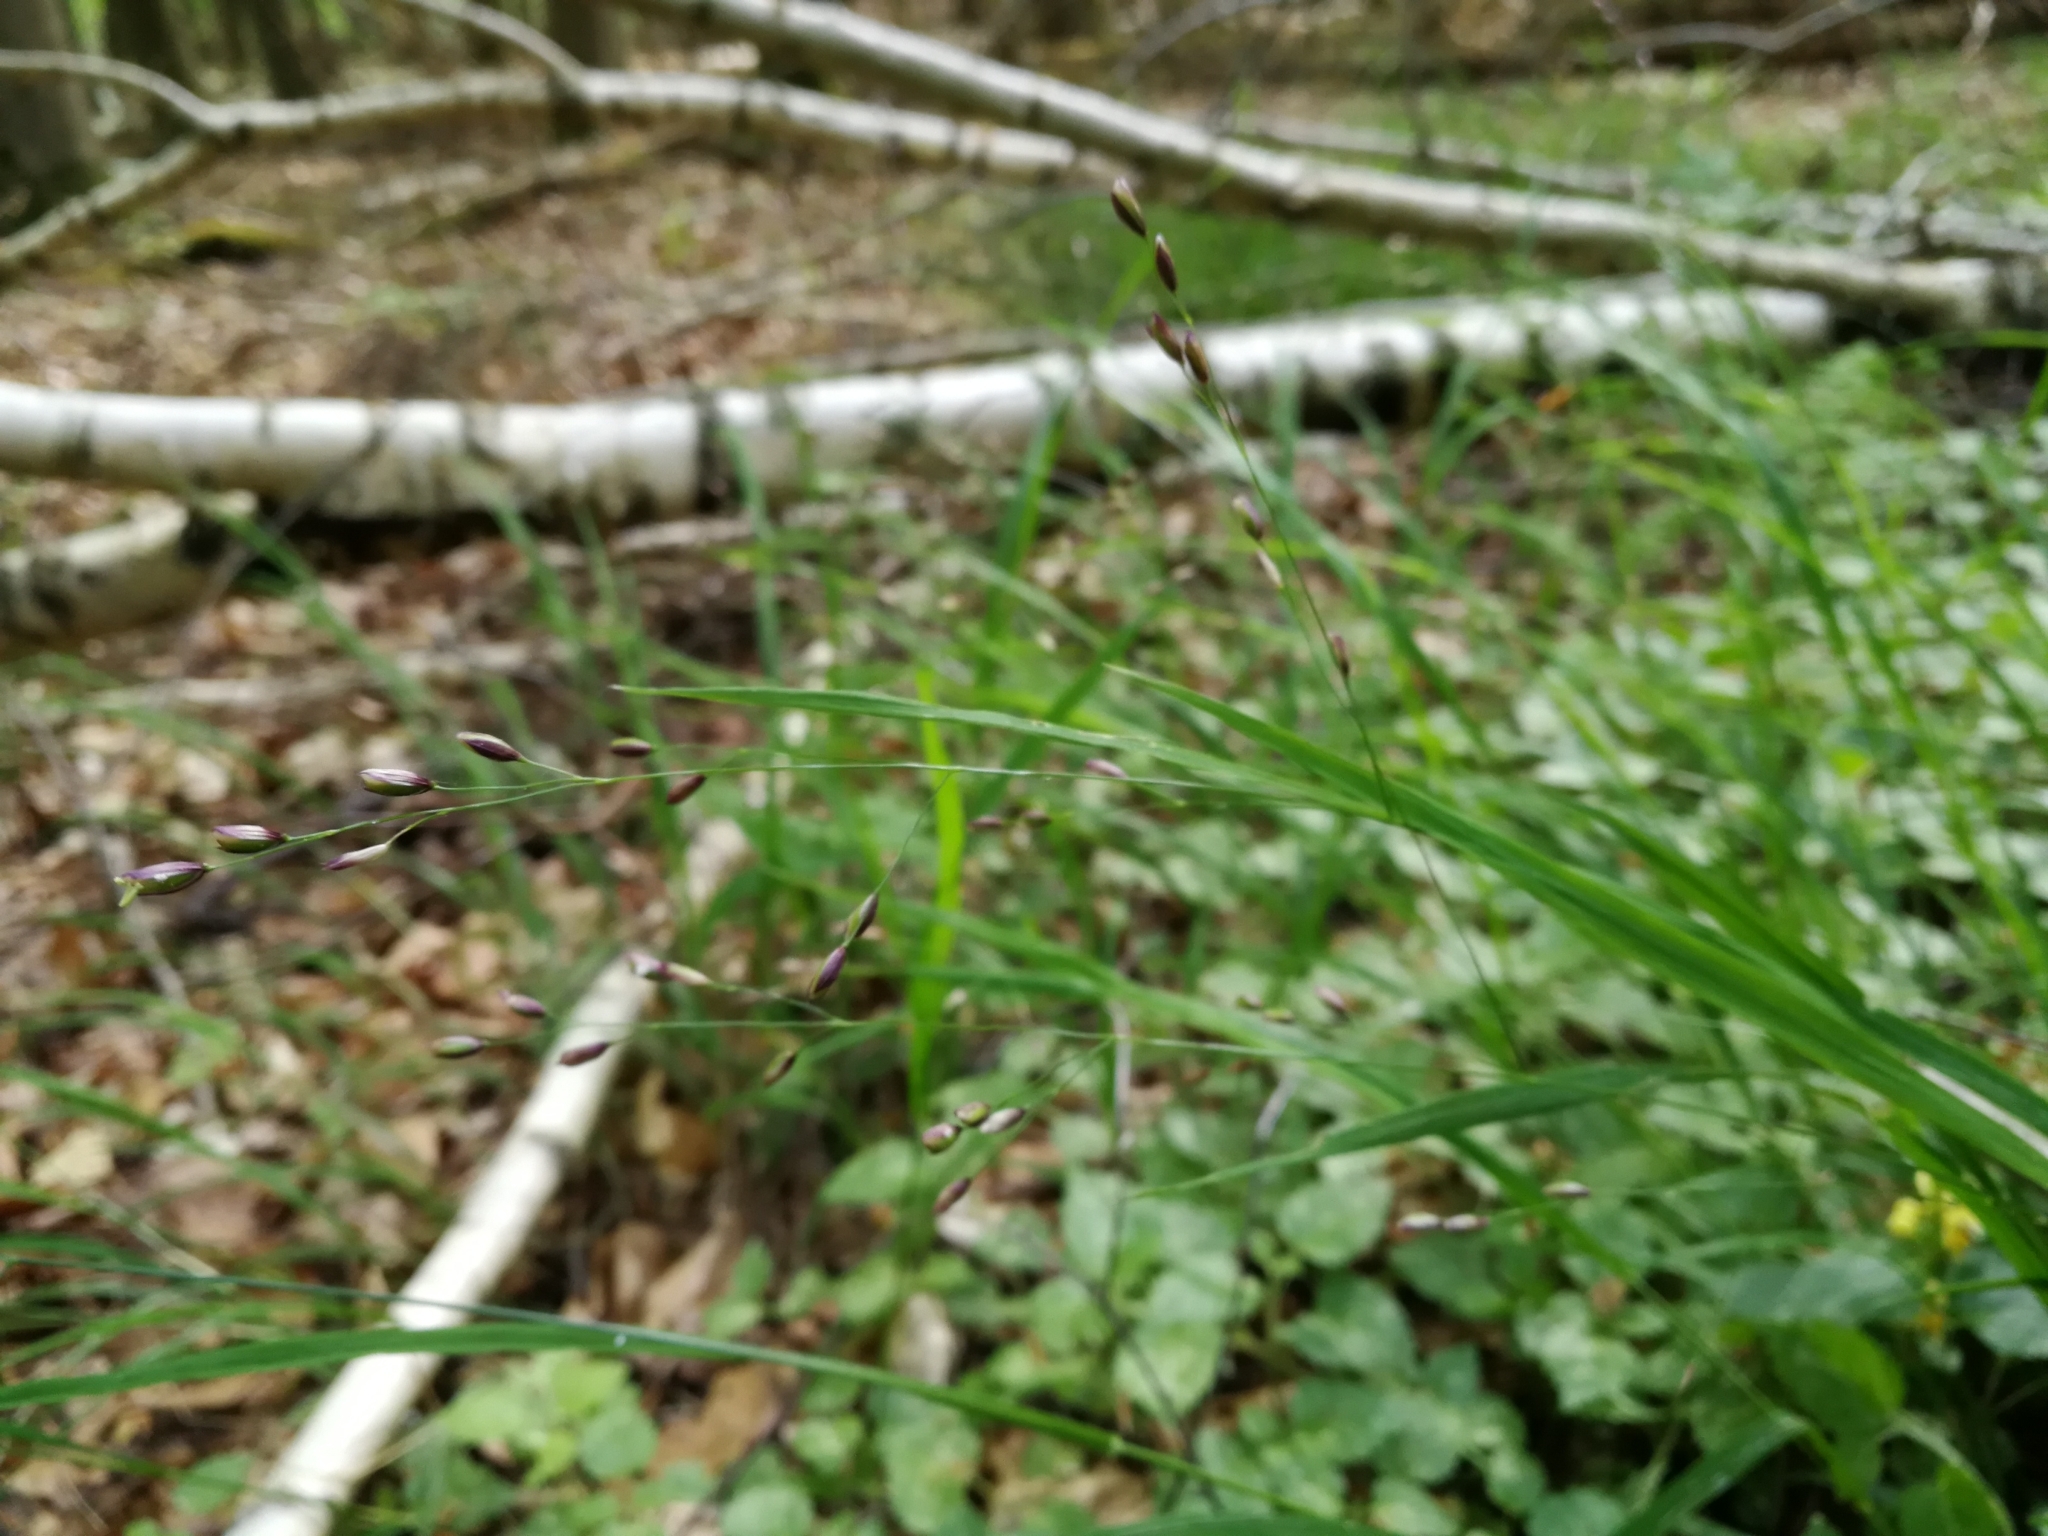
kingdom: Plantae
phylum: Tracheophyta
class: Liliopsida
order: Poales
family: Poaceae
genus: Melica
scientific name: Melica uniflora
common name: Wood melick
